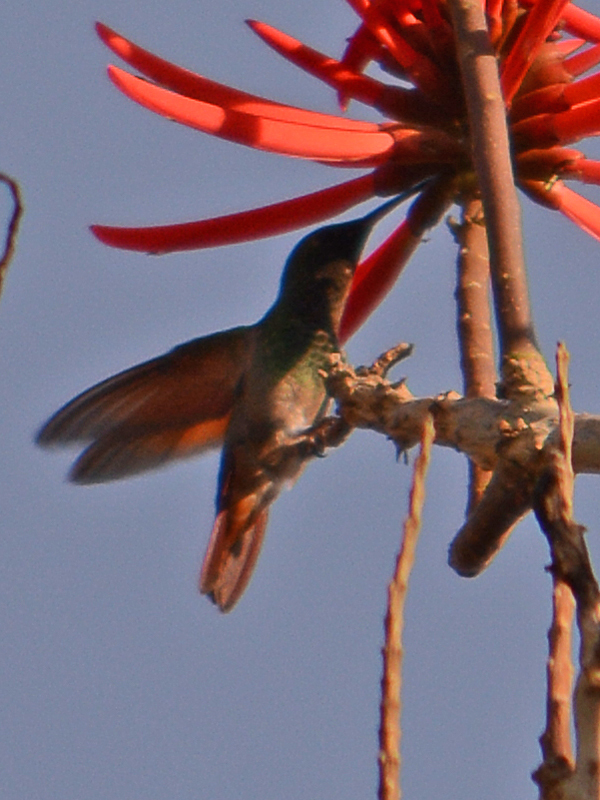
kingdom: Animalia
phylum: Chordata
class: Aves
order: Apodiformes
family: Trochilidae
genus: Saucerottia
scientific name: Saucerottia beryllina
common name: Berylline hummingbird
